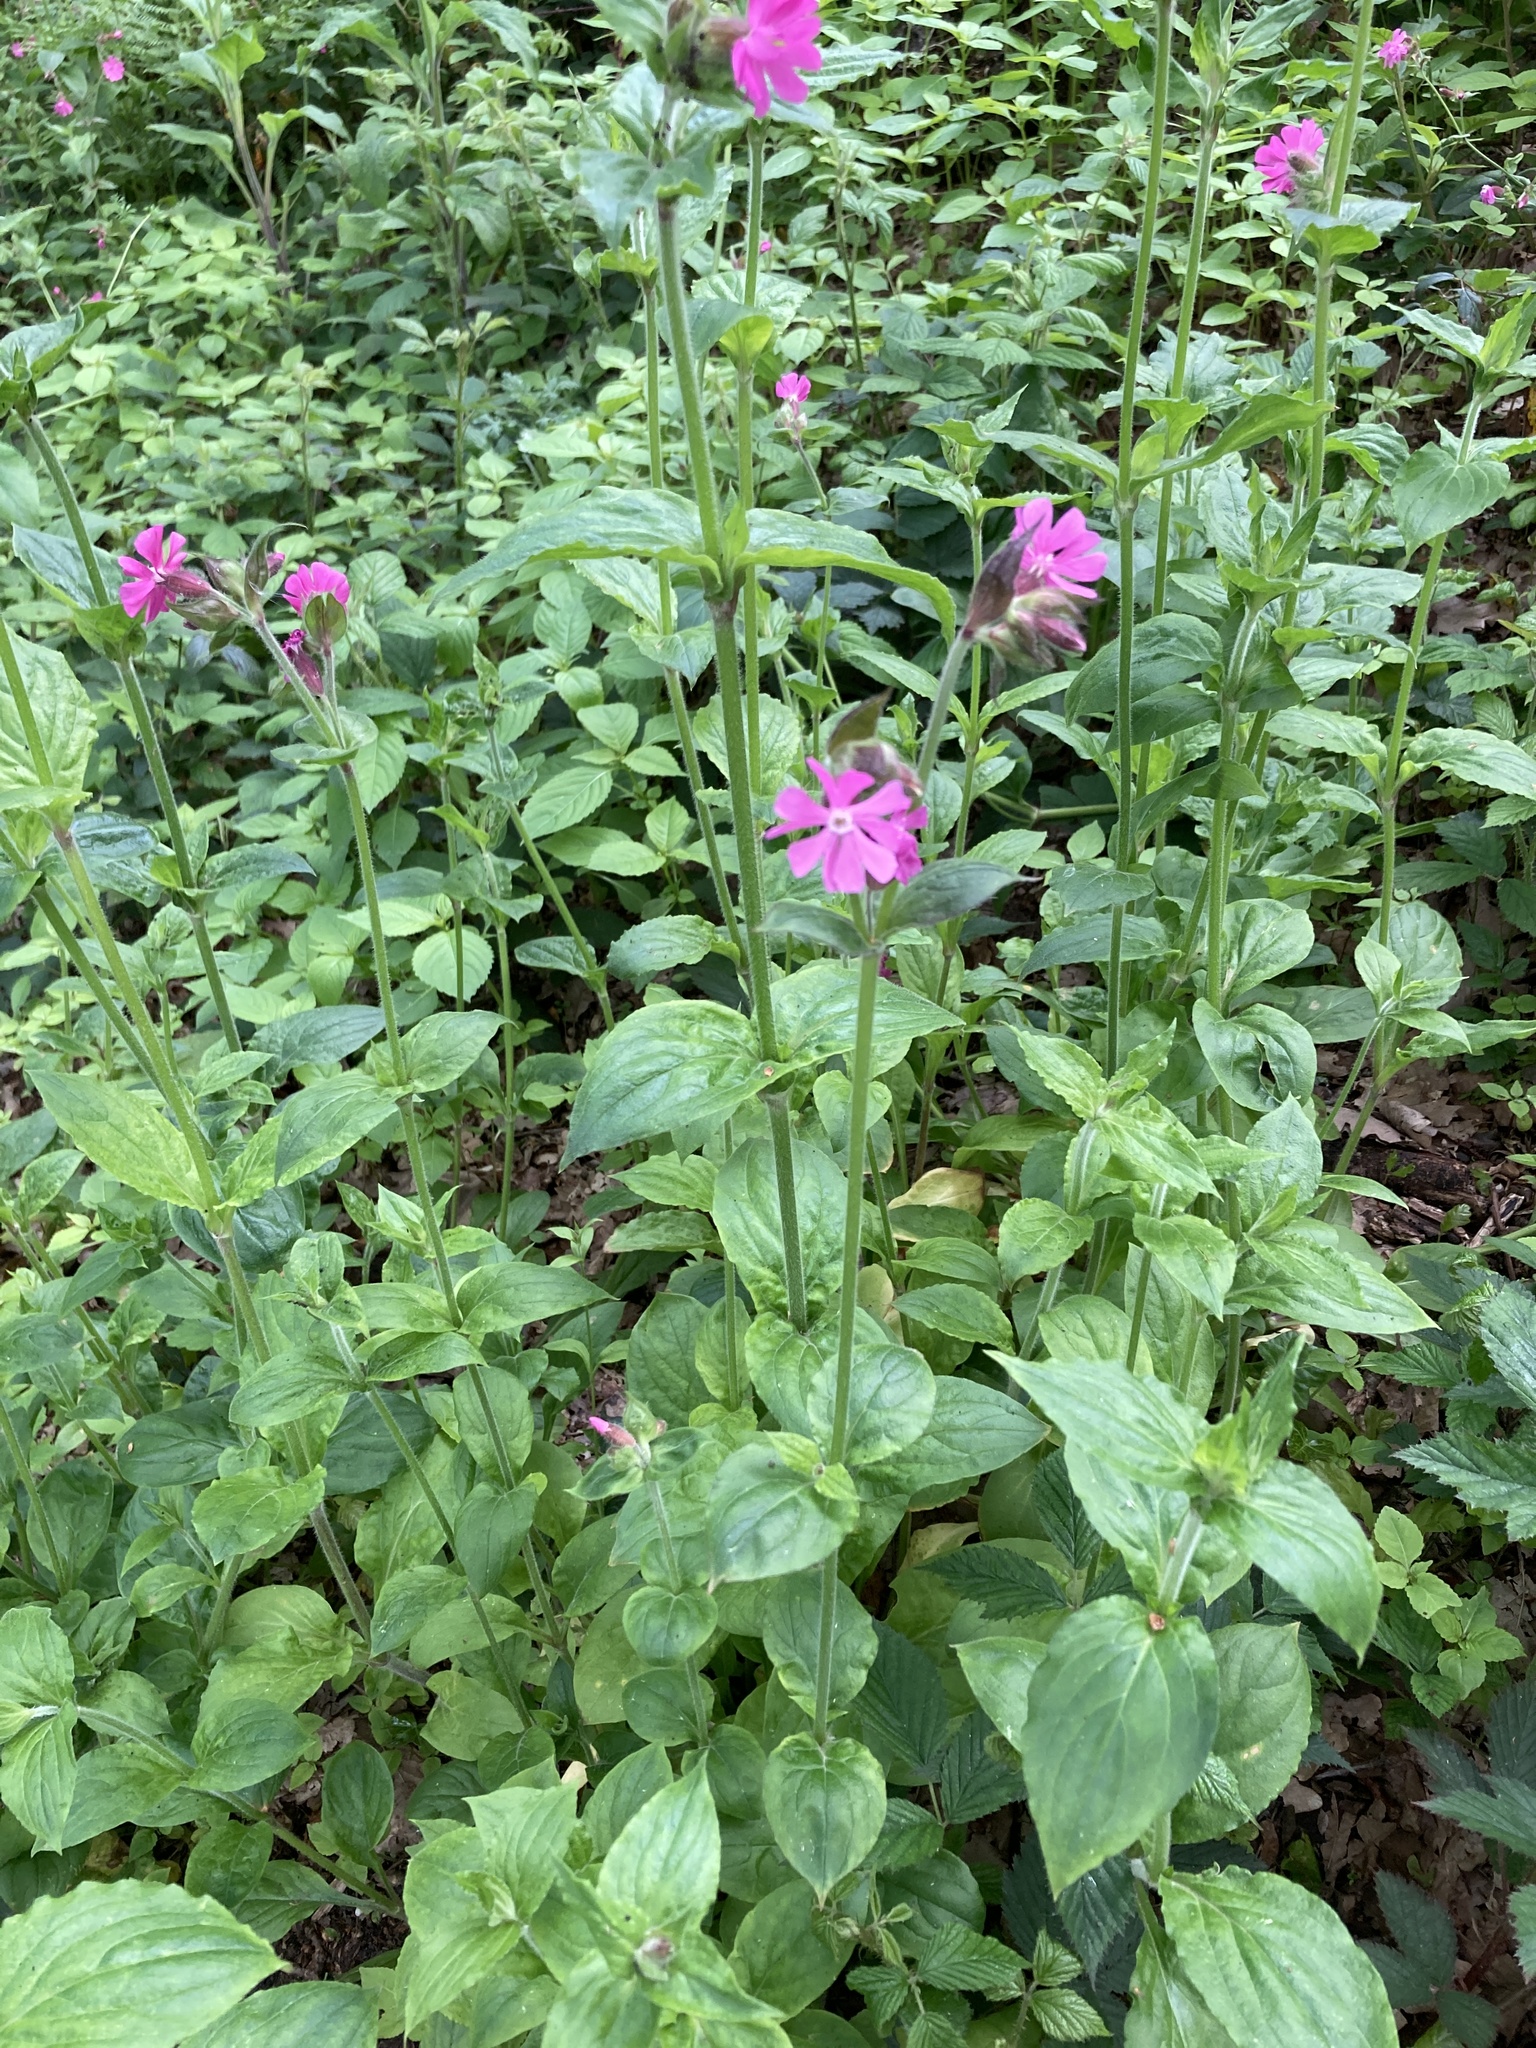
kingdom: Plantae
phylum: Tracheophyta
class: Magnoliopsida
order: Caryophyllales
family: Caryophyllaceae
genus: Silene
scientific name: Silene dioica
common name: Red campion
